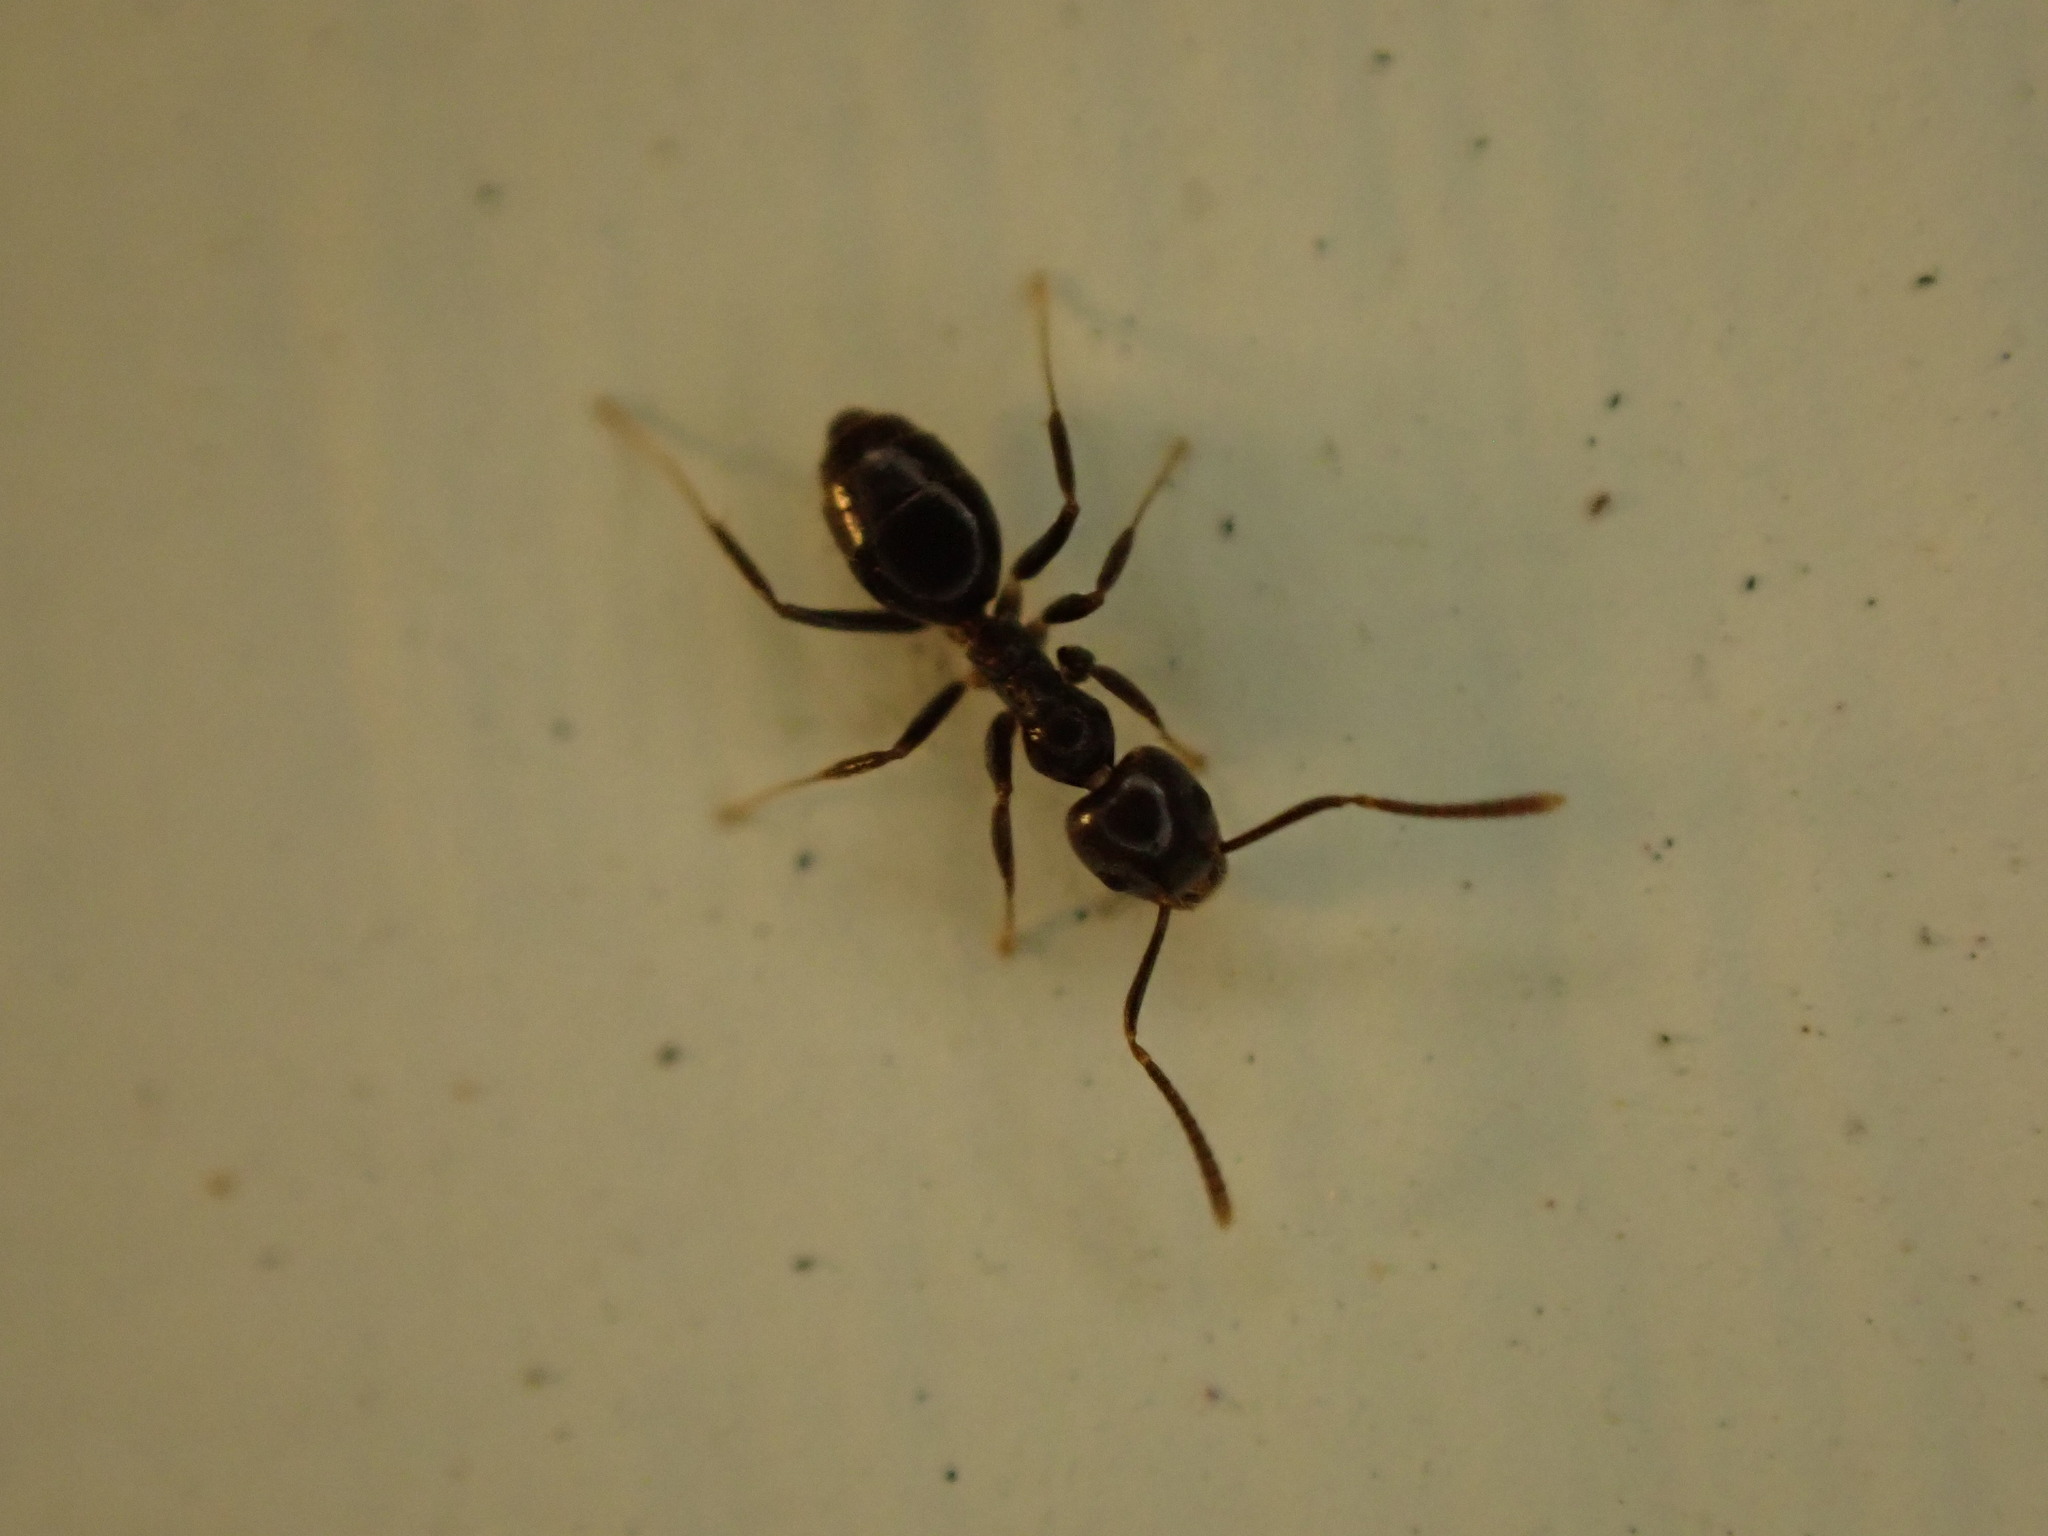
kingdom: Animalia
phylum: Arthropoda
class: Insecta
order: Hymenoptera
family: Formicidae
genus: Technomyrmex
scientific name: Technomyrmex jocosus
